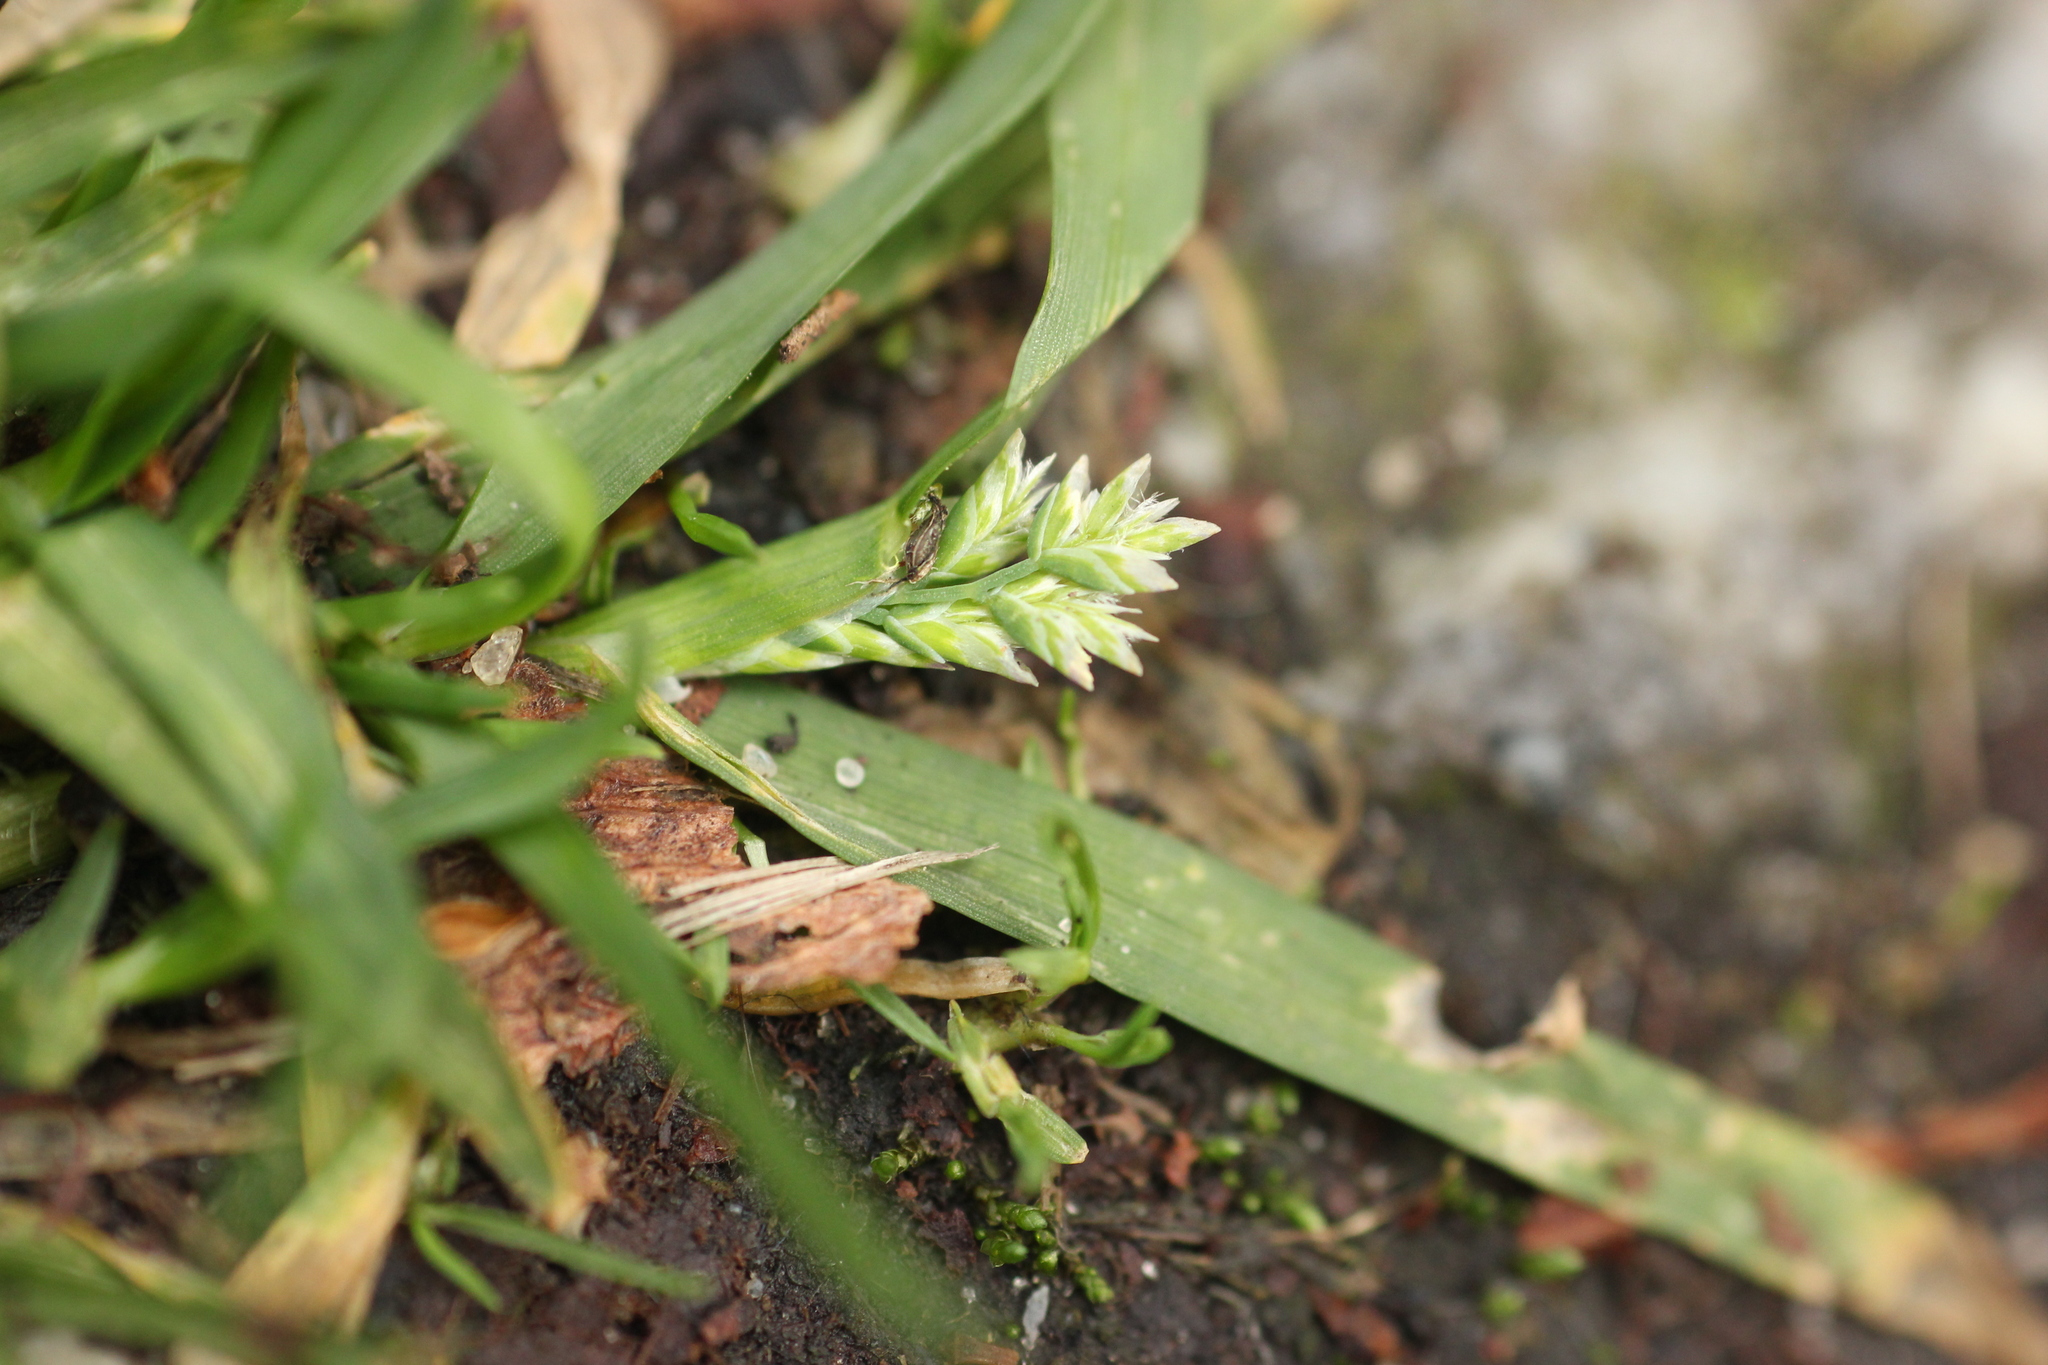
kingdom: Plantae
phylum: Tracheophyta
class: Liliopsida
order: Poales
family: Poaceae
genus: Poa
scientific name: Poa annua
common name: Annual bluegrass
